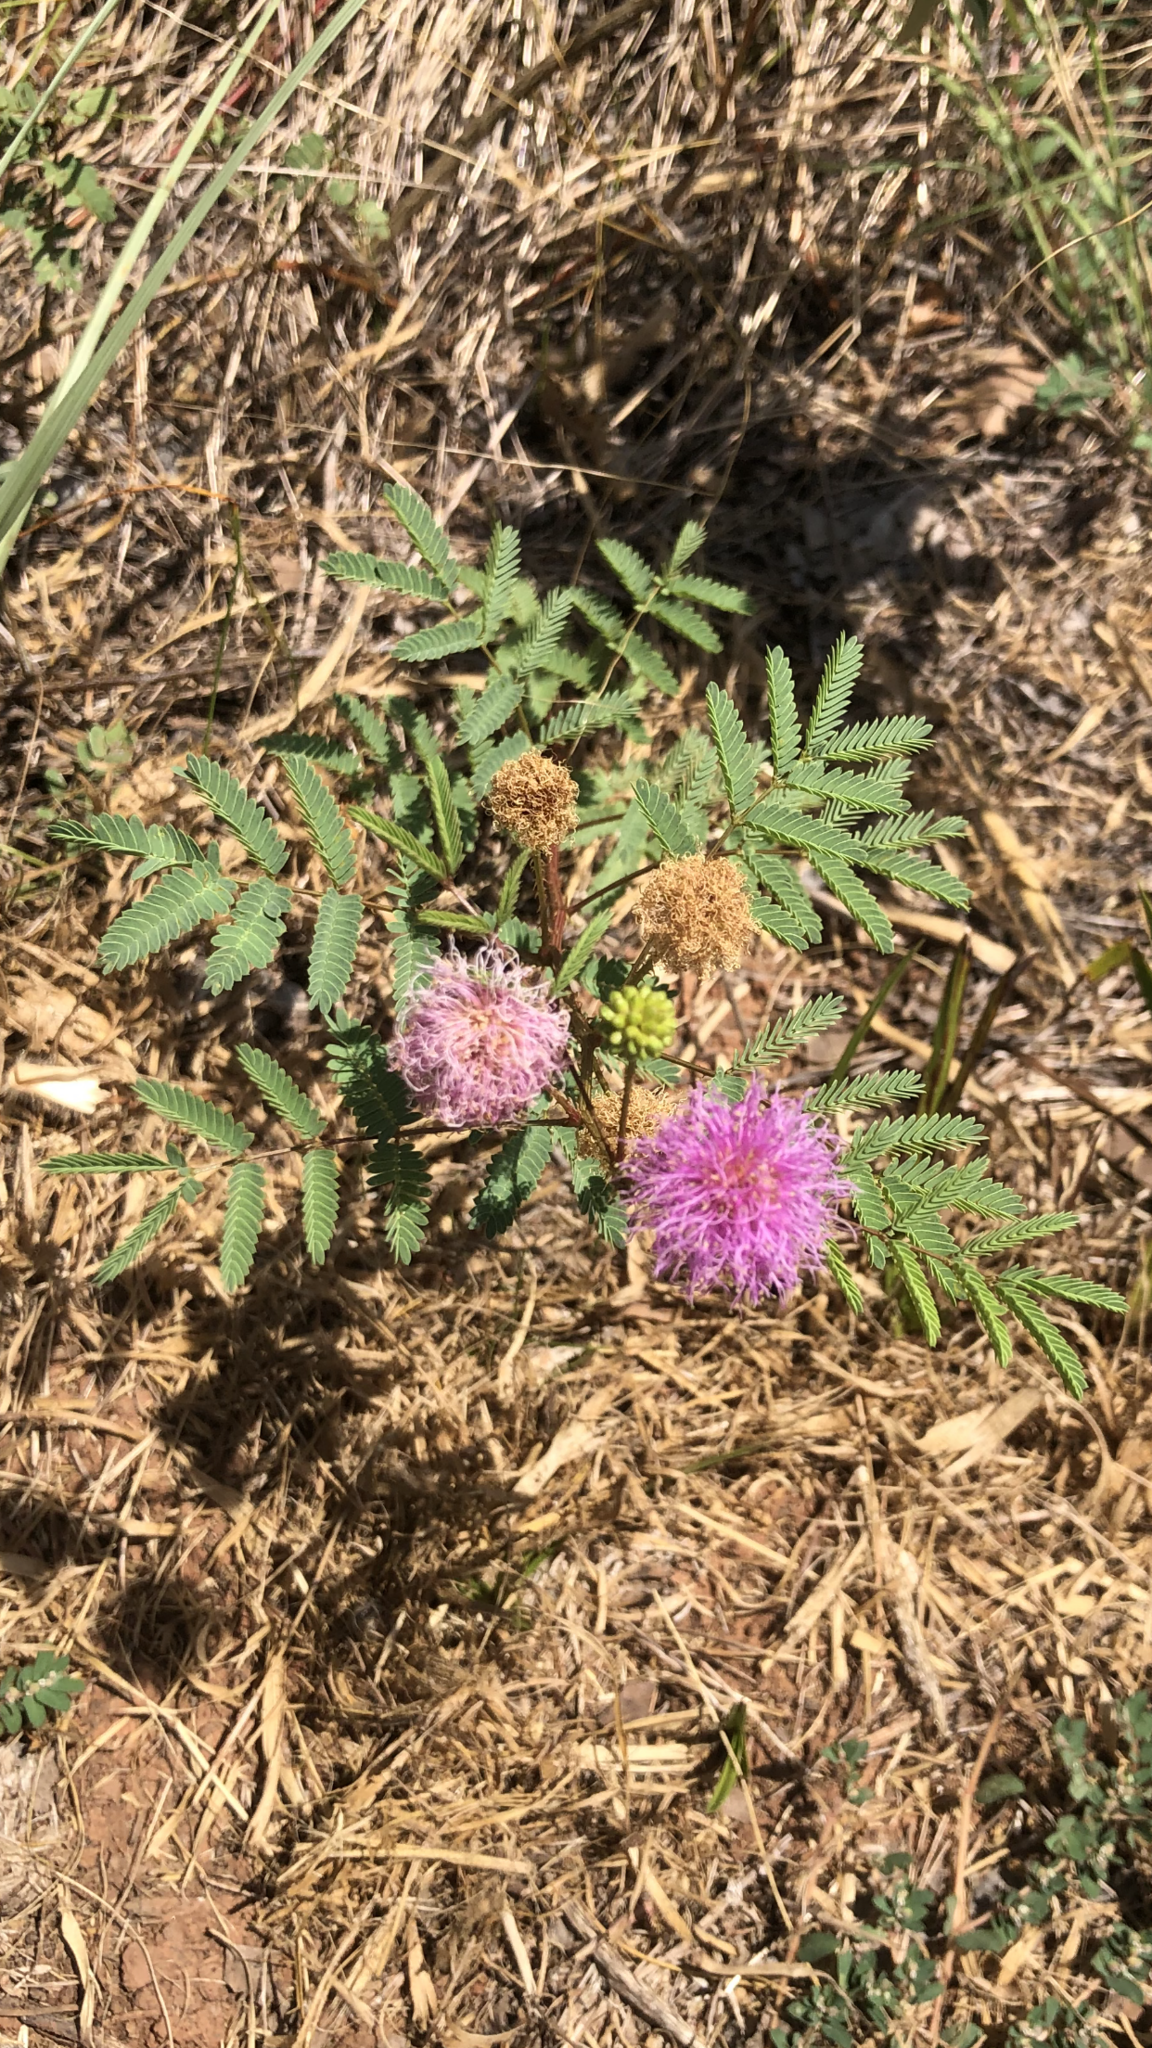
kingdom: Plantae
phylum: Tracheophyta
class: Magnoliopsida
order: Fabales
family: Fabaceae
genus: Mimosa
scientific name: Mimosa quadrivalvis
